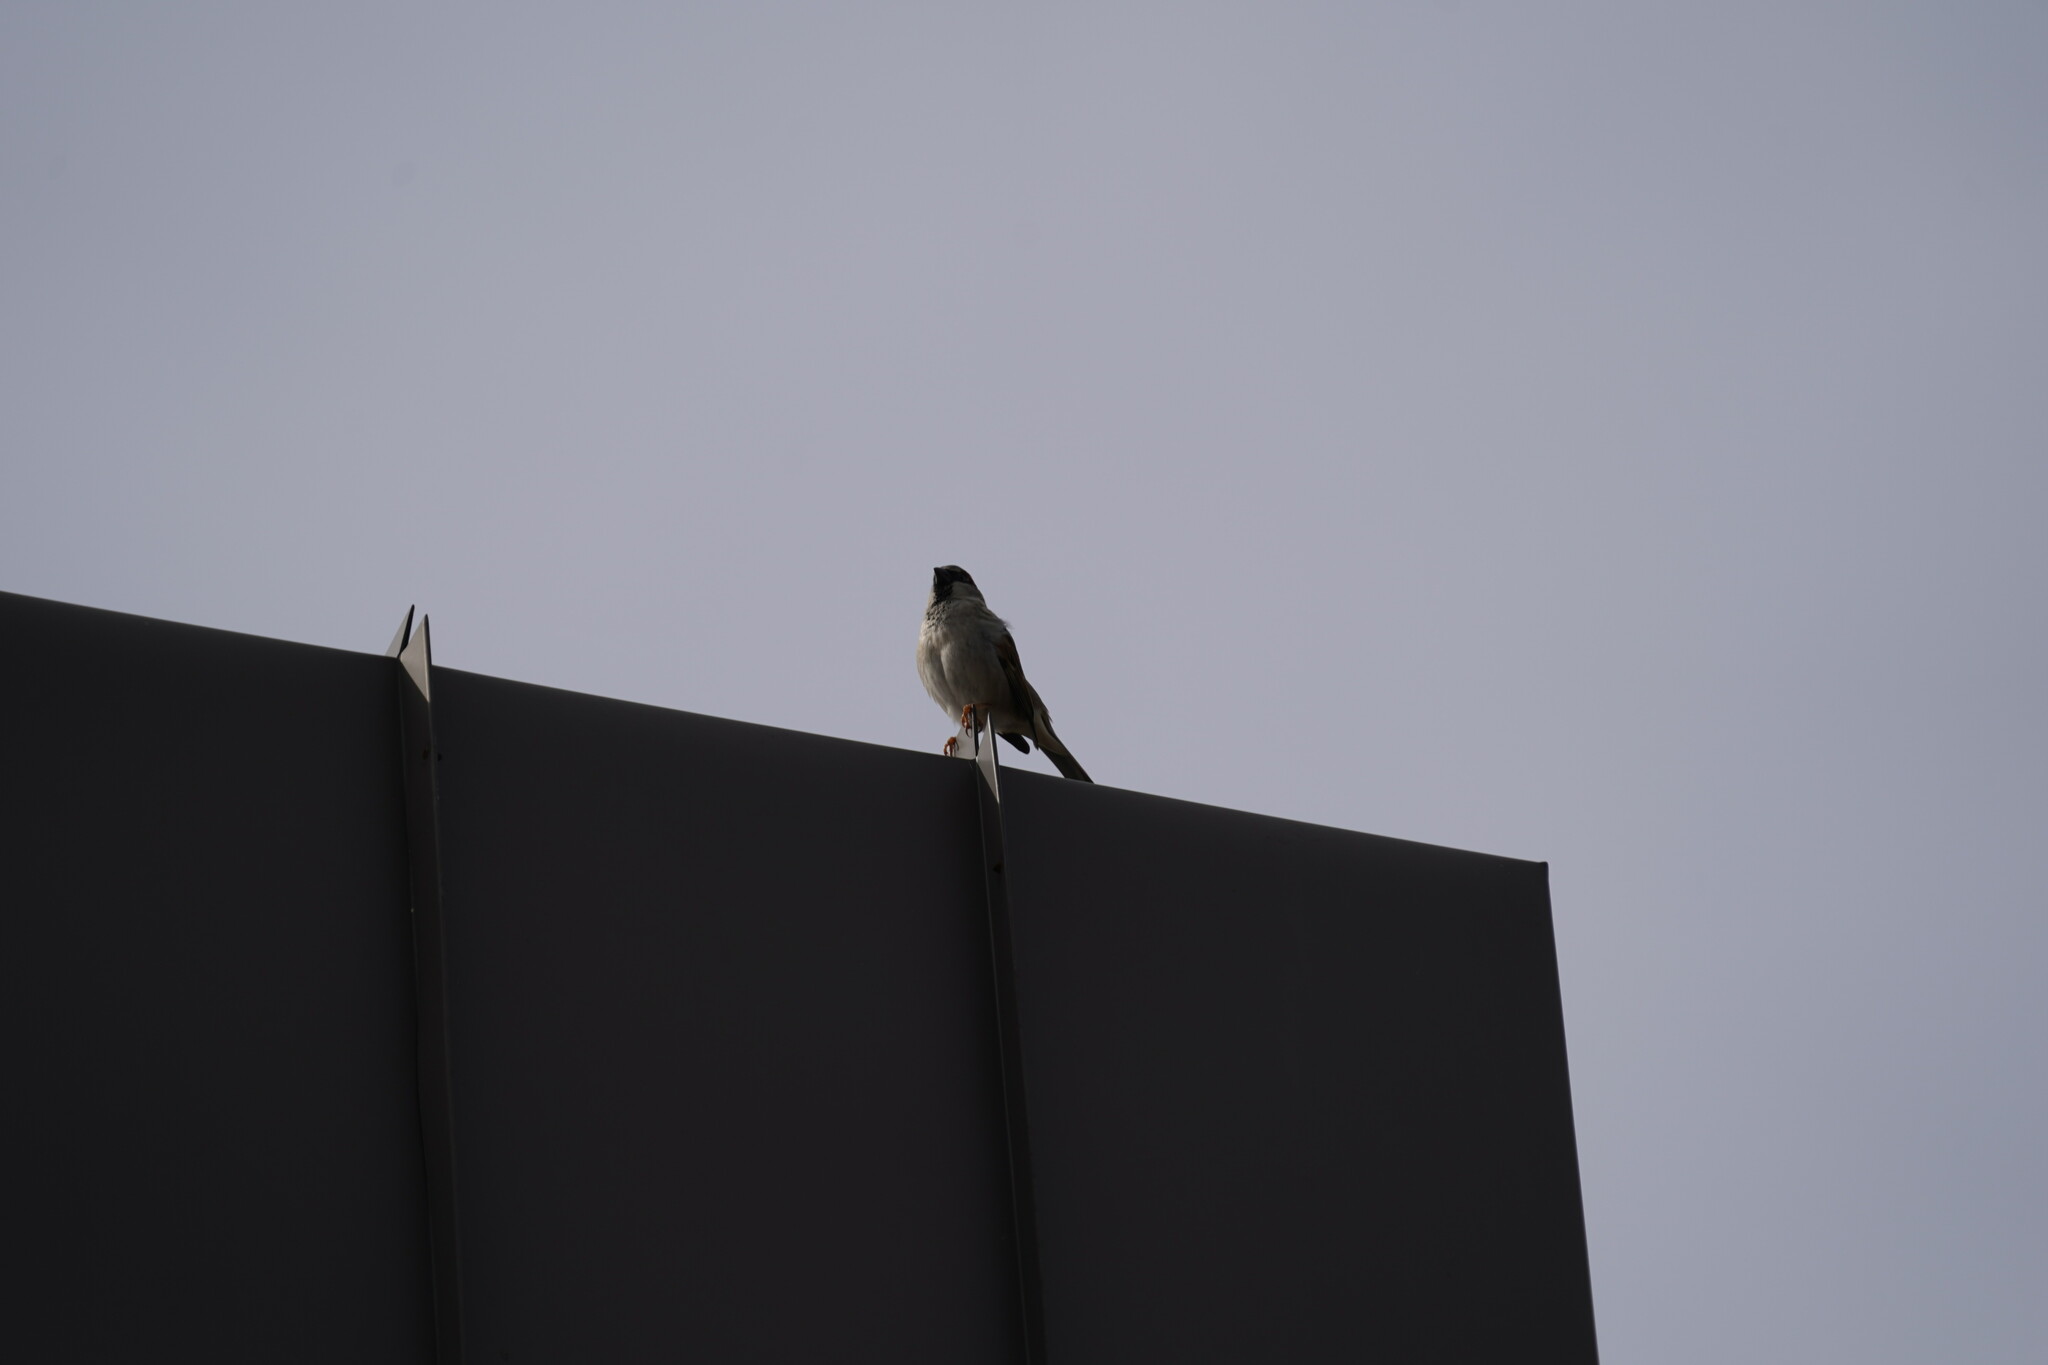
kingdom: Animalia
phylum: Chordata
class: Aves
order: Passeriformes
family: Passeridae
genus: Passer
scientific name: Passer domesticus
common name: House sparrow
